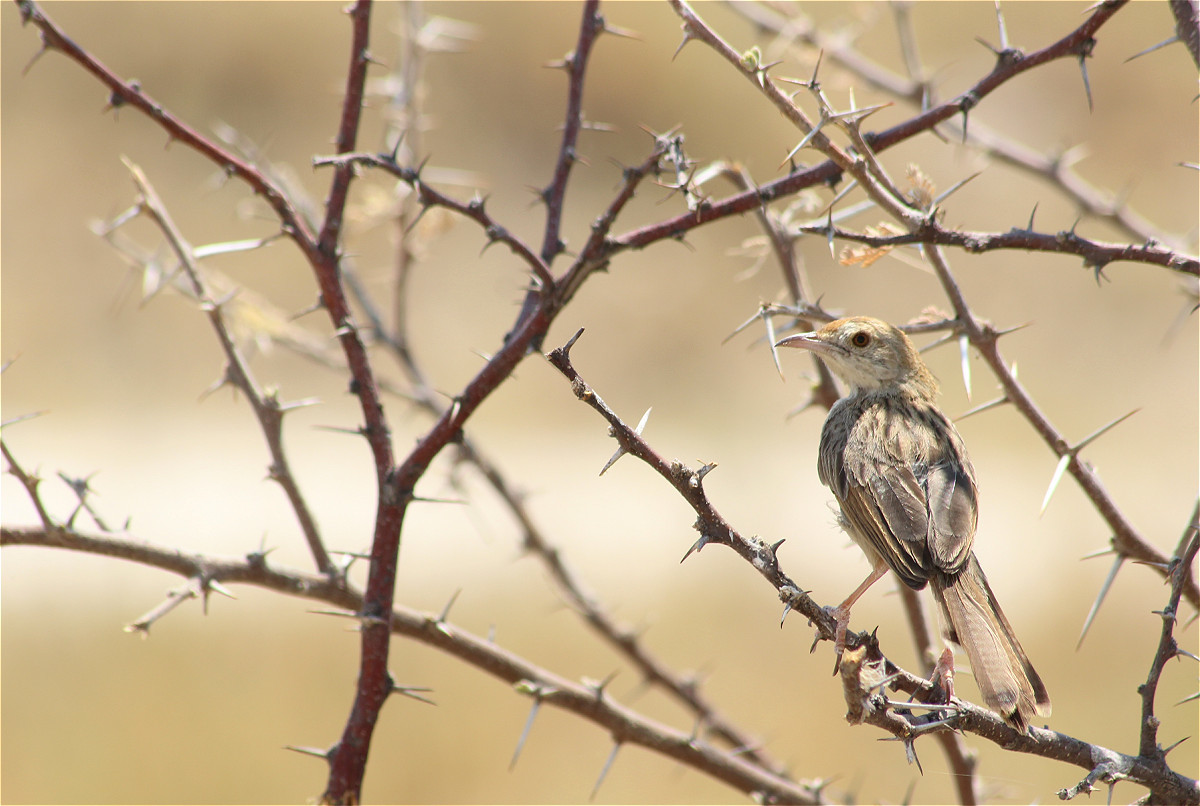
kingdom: Animalia
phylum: Chordata
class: Aves
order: Passeriformes
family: Cisticolidae
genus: Cisticola
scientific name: Cisticola chiniana
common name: Rattling cisticola
